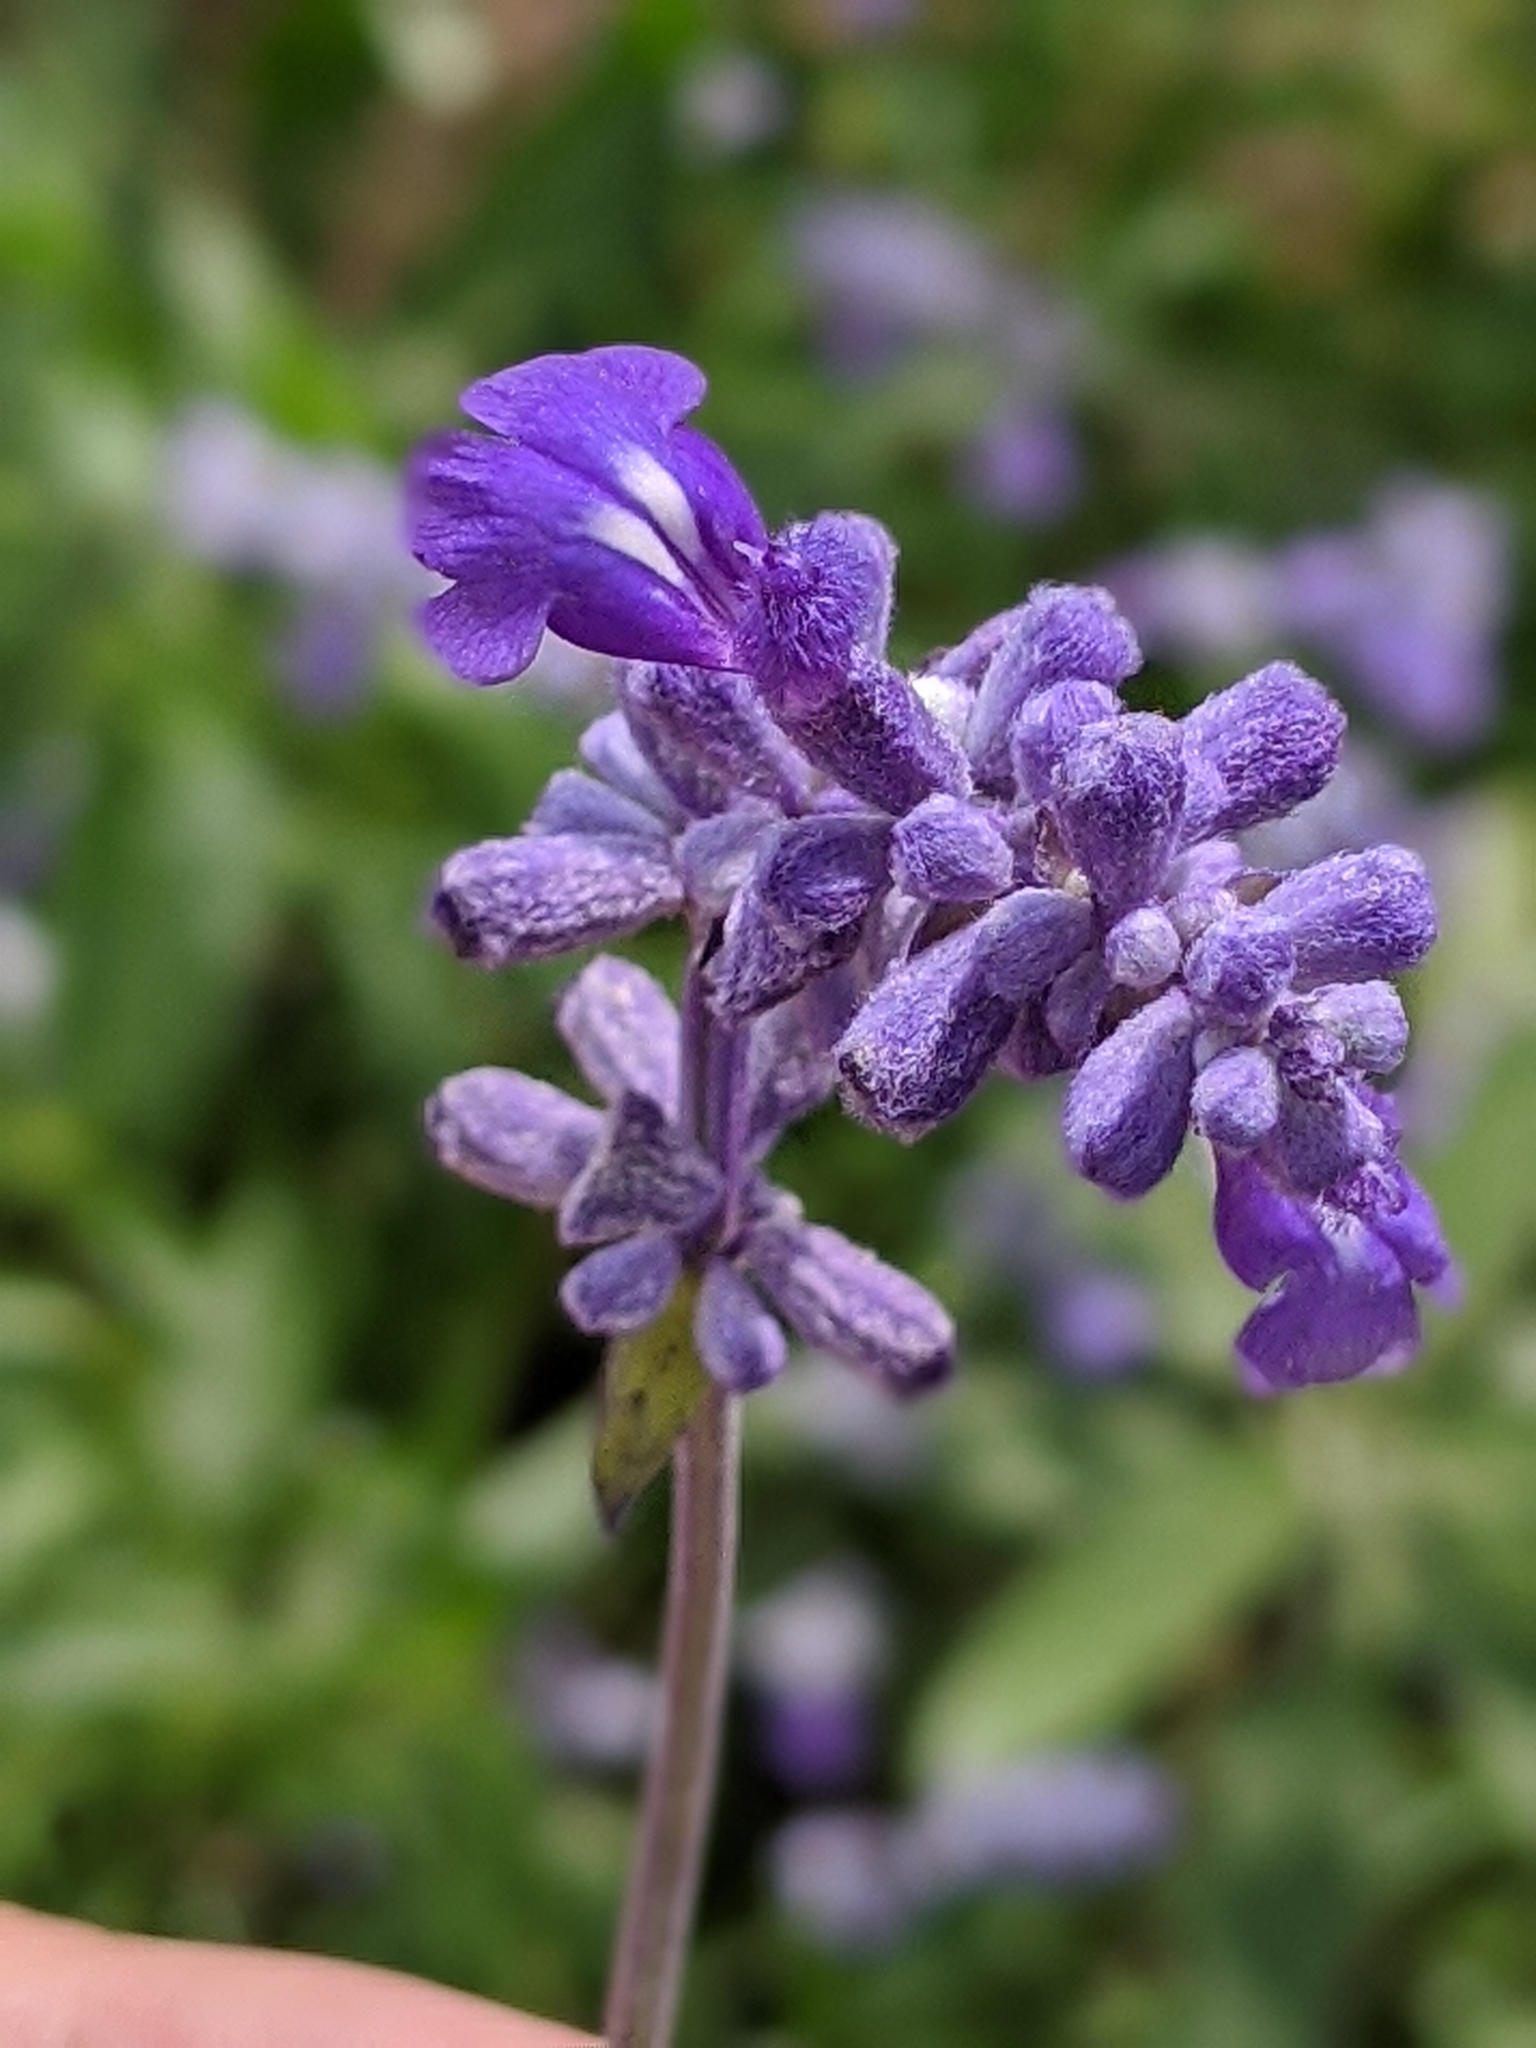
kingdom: Plantae
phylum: Tracheophyta
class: Magnoliopsida
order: Lamiales
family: Lamiaceae
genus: Salvia
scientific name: Salvia farinacea
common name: Mealy sage
